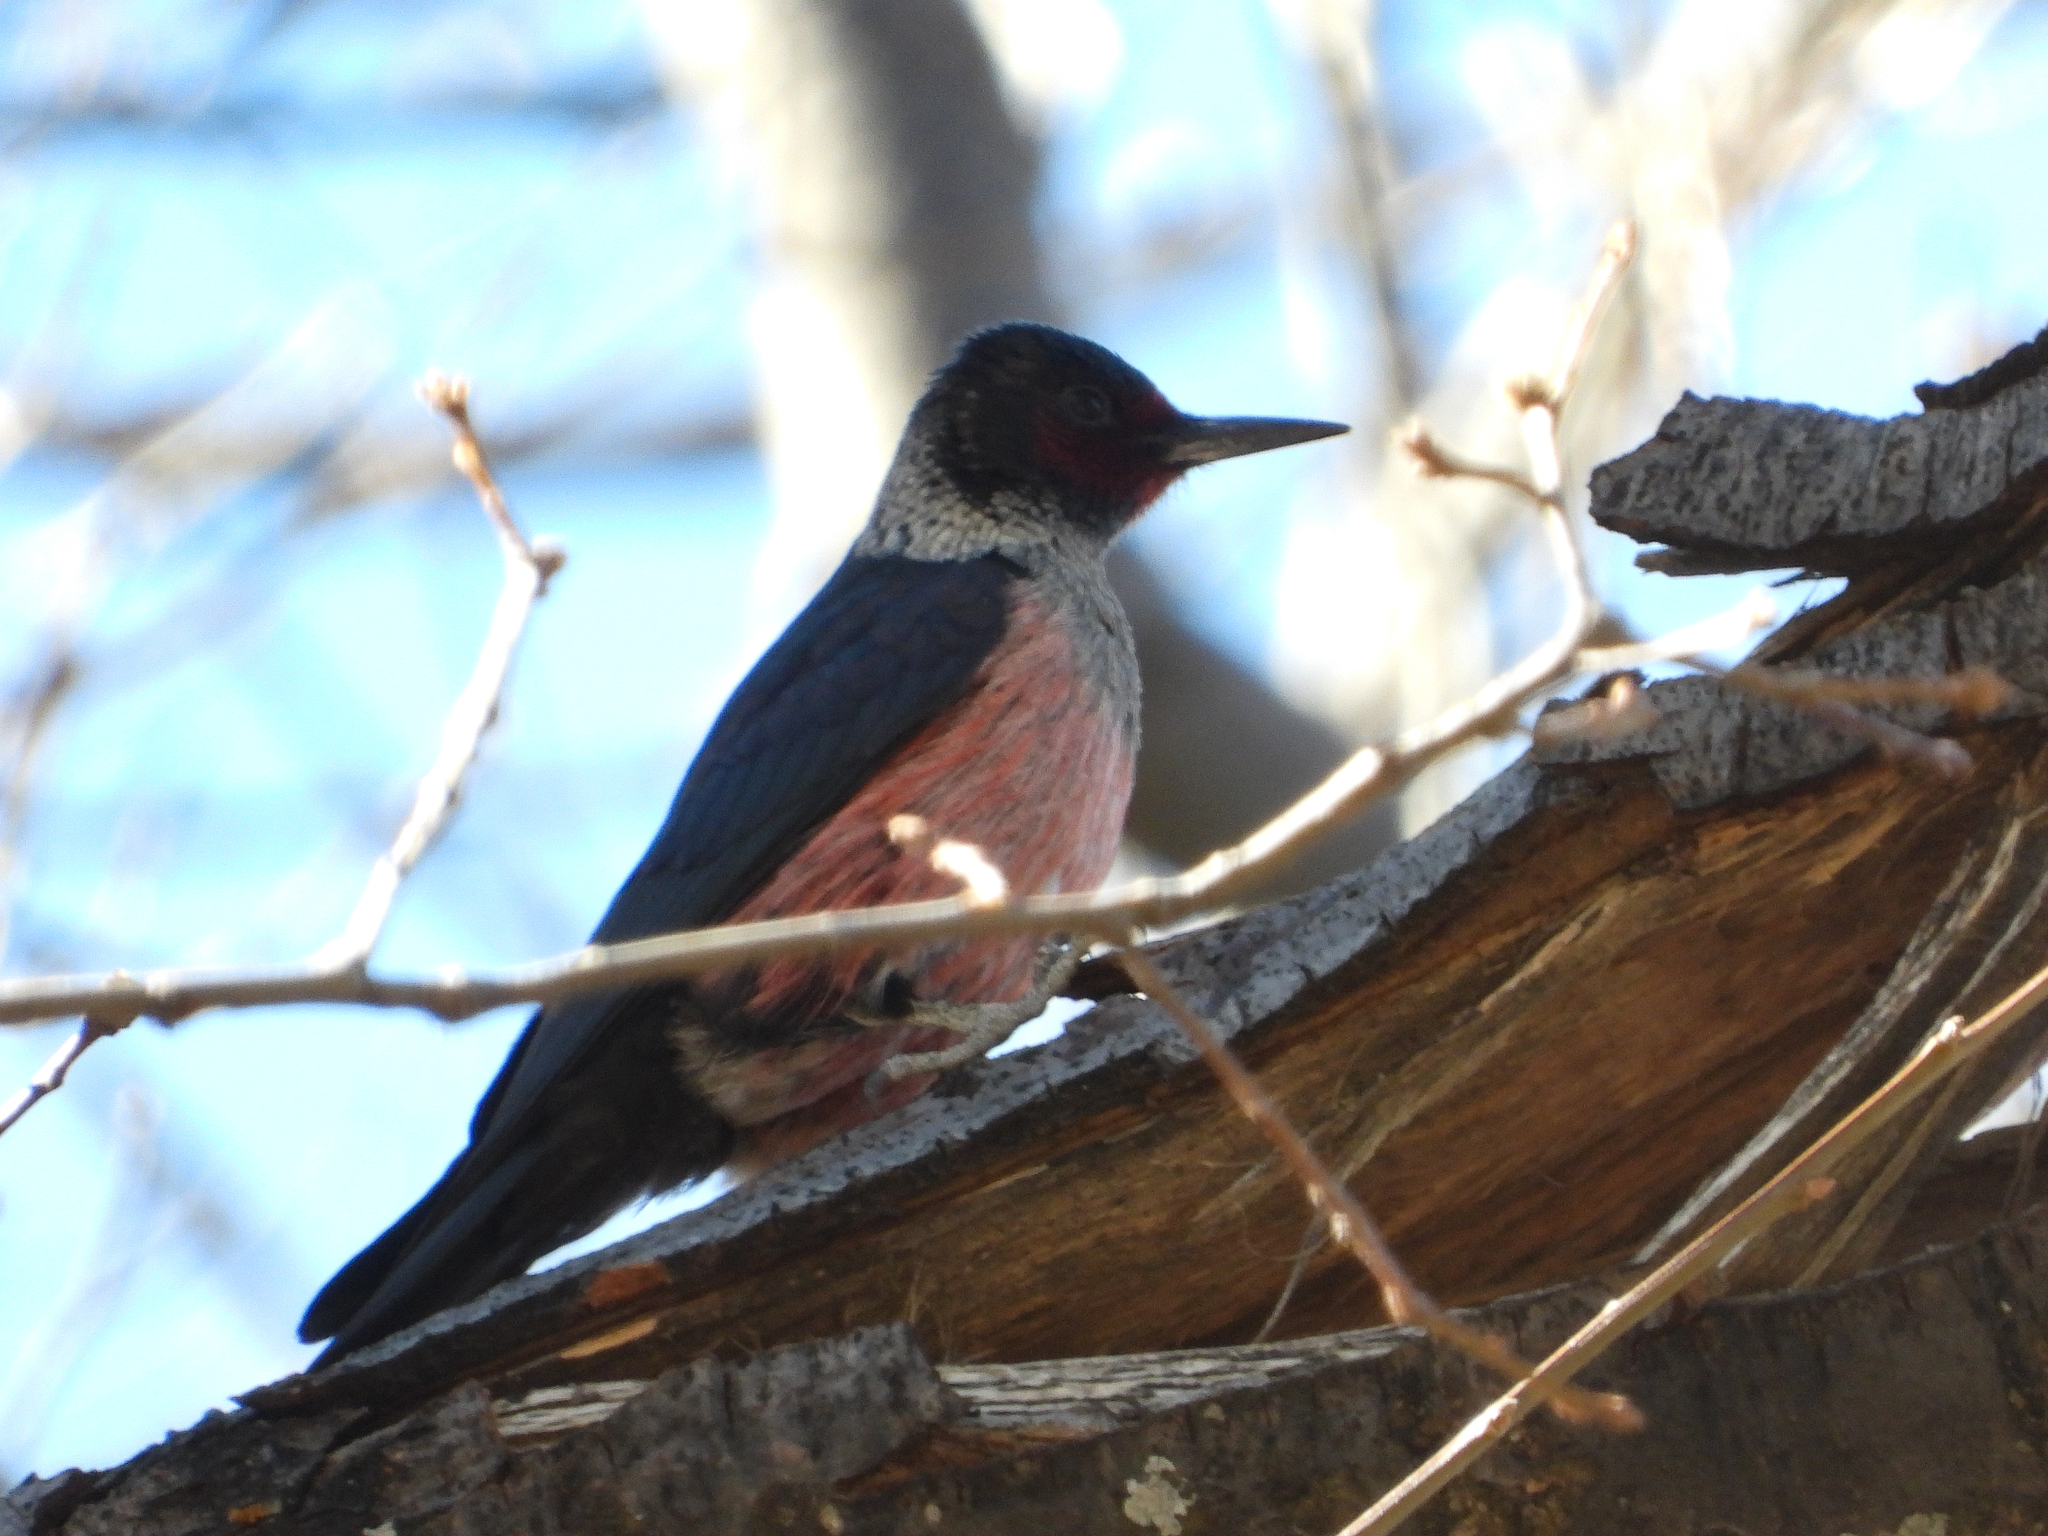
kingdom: Animalia
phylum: Chordata
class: Aves
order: Piciformes
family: Picidae
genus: Melanerpes
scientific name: Melanerpes lewis
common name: Lewis's woodpecker
